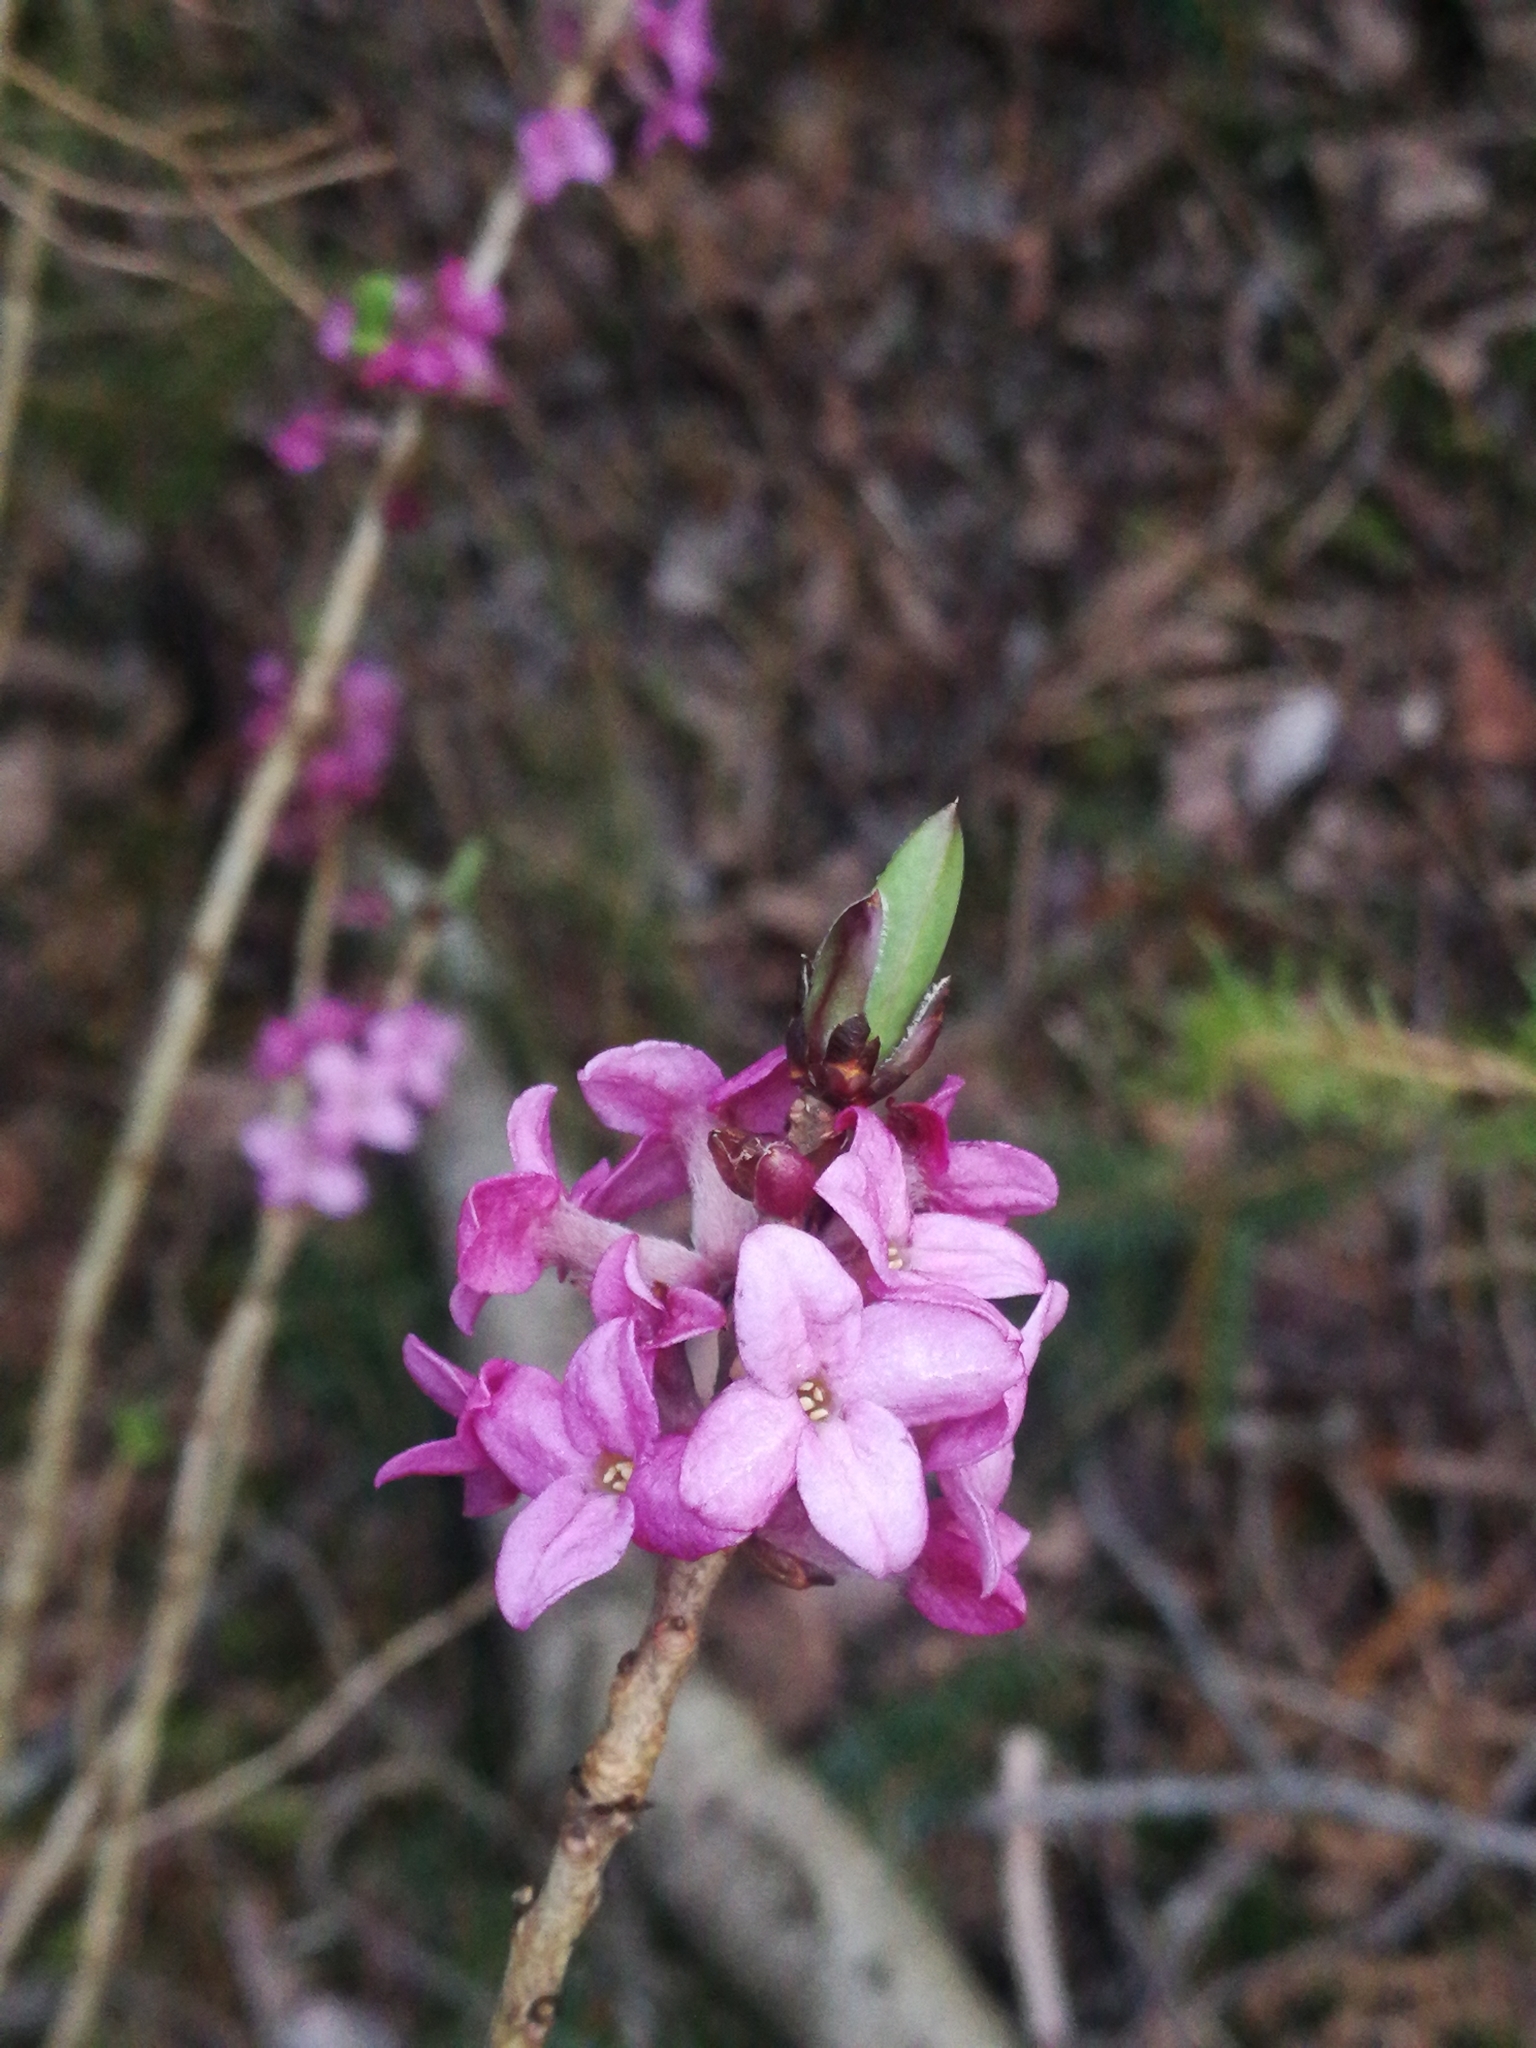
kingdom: Plantae
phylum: Tracheophyta
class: Magnoliopsida
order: Malvales
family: Thymelaeaceae
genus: Daphne
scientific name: Daphne mezereum
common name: Mezereon
